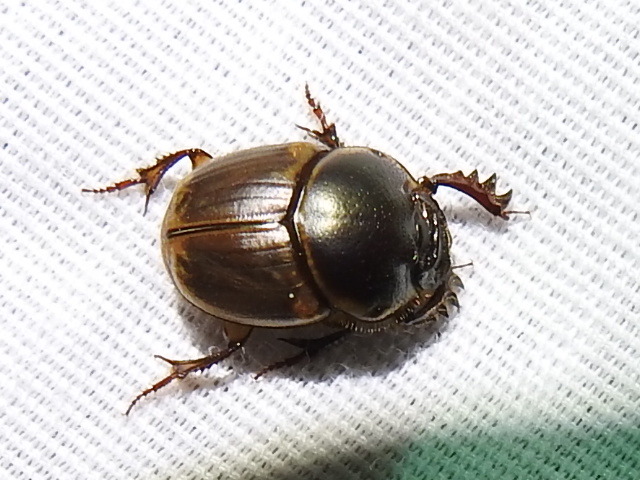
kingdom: Animalia
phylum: Arthropoda
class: Insecta
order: Coleoptera
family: Scarabaeidae
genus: Digitonthophagus
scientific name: Digitonthophagus gazella
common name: Brown dung beetle
